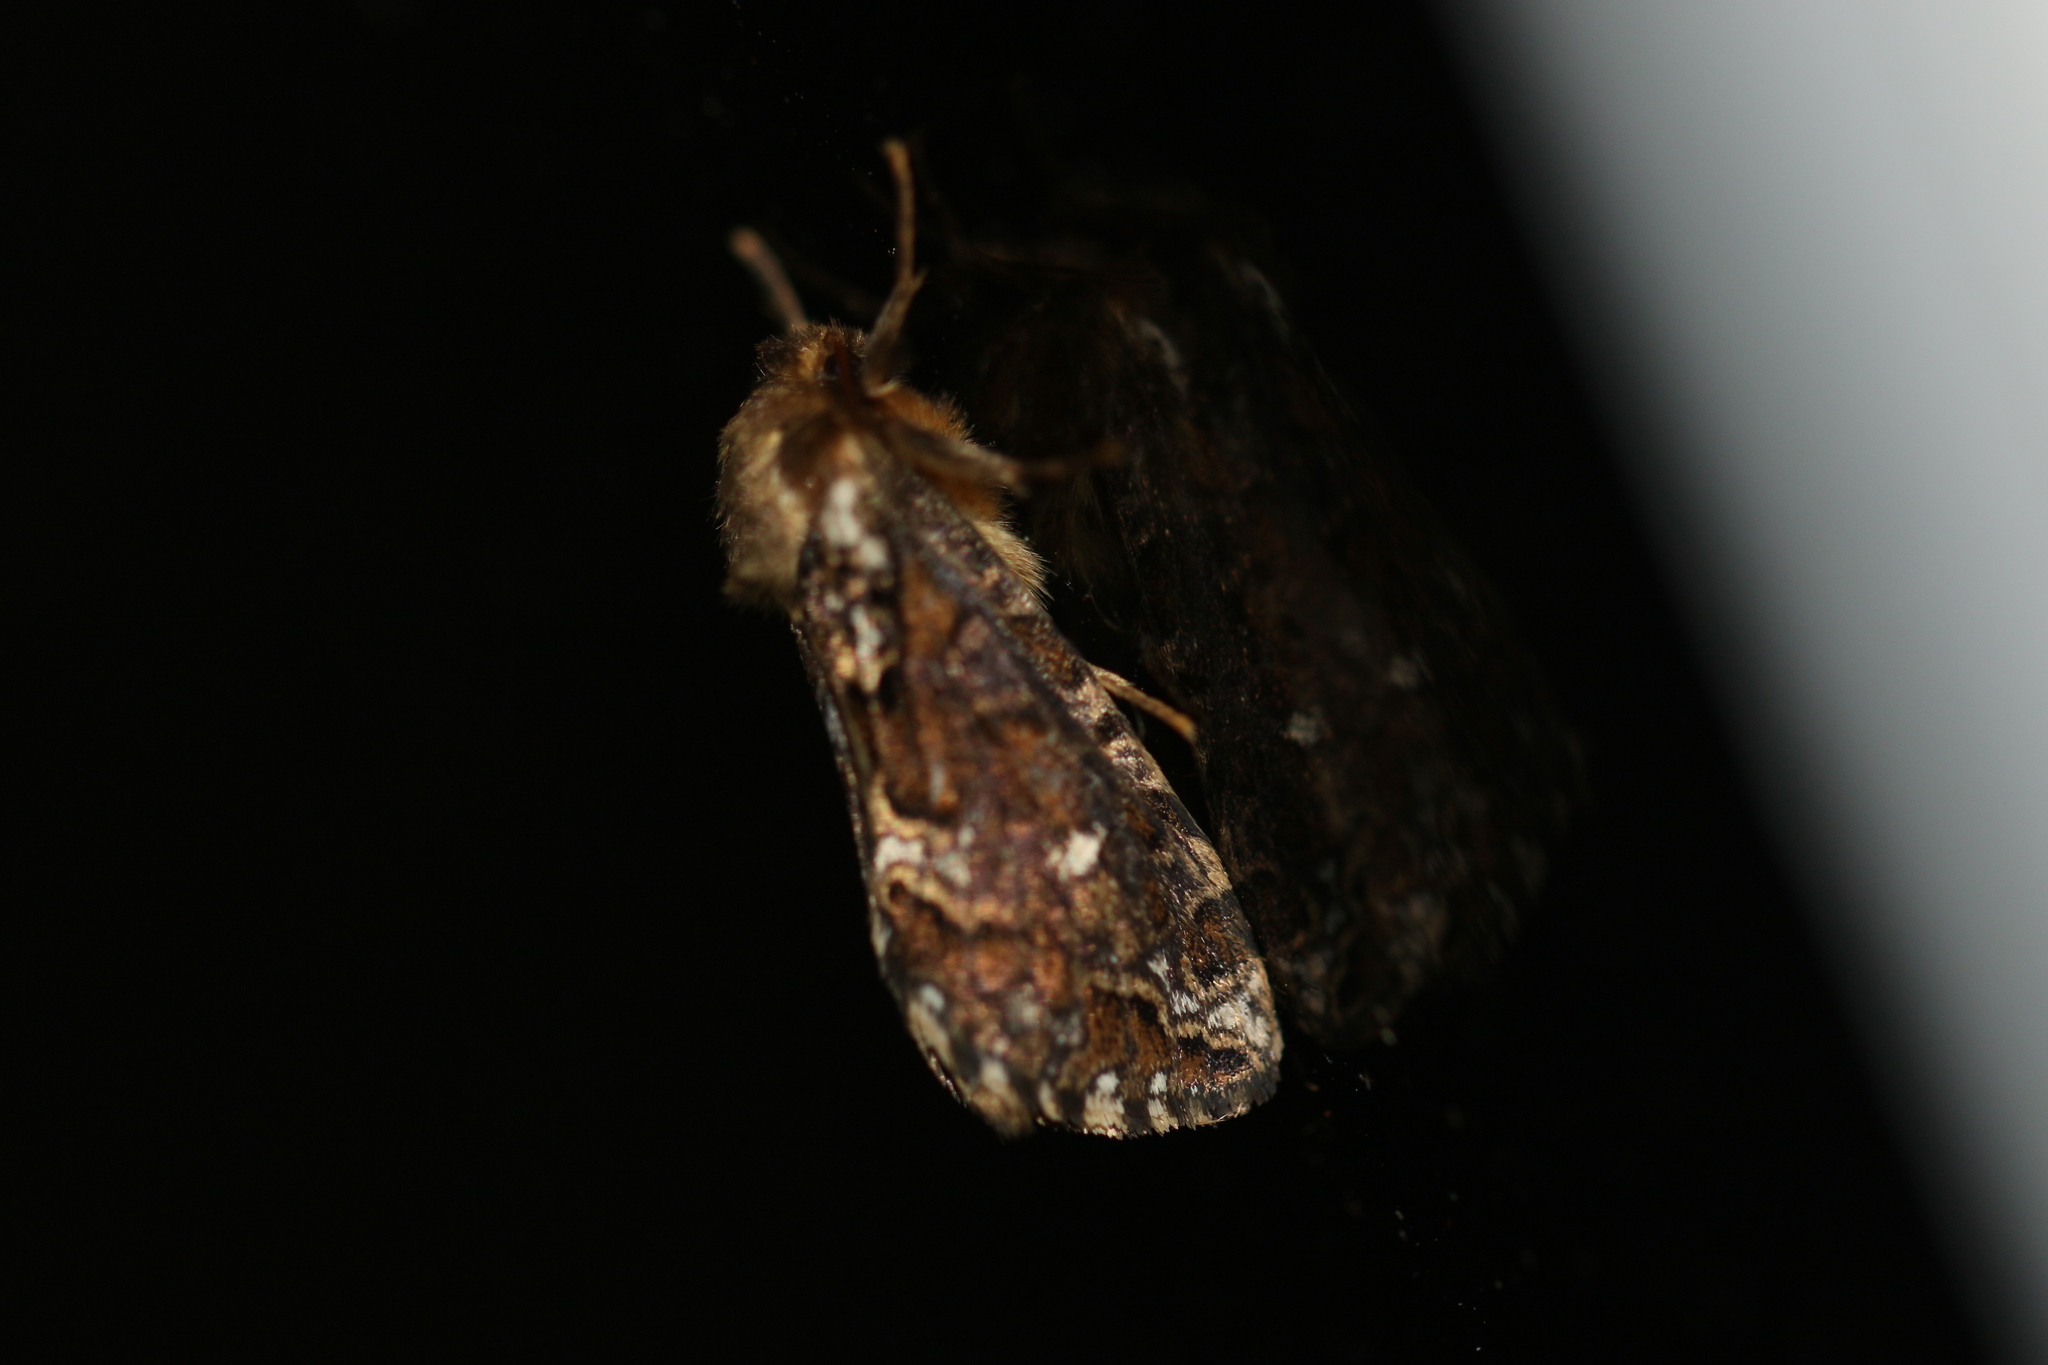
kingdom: Animalia
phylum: Arthropoda
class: Insecta
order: Lepidoptera
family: Hepialidae
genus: Korscheltellus
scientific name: Korscheltellus gracilis
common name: Conifer swift moth
